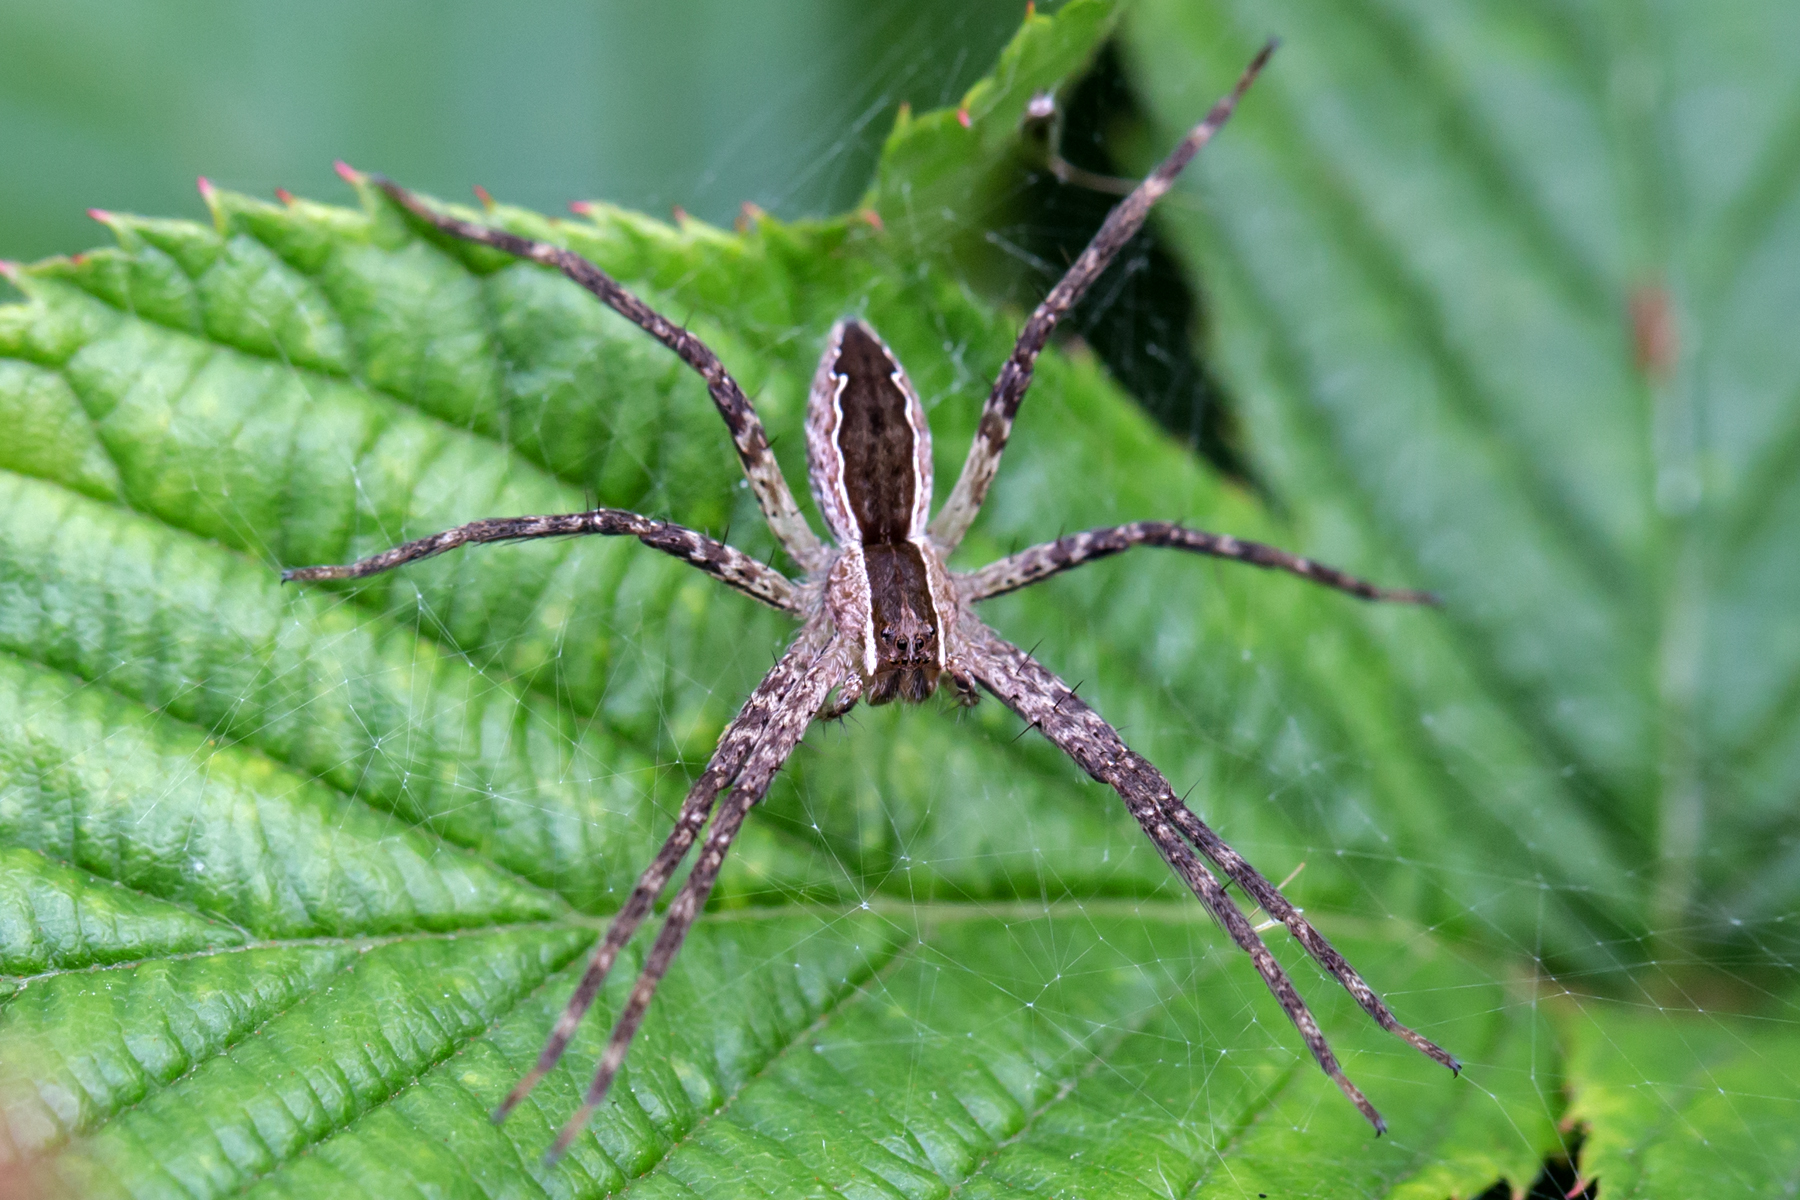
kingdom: Animalia
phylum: Arthropoda
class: Arachnida
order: Araneae
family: Pisauridae
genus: Pisaurina
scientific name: Pisaurina mira
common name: American nursery web spider
